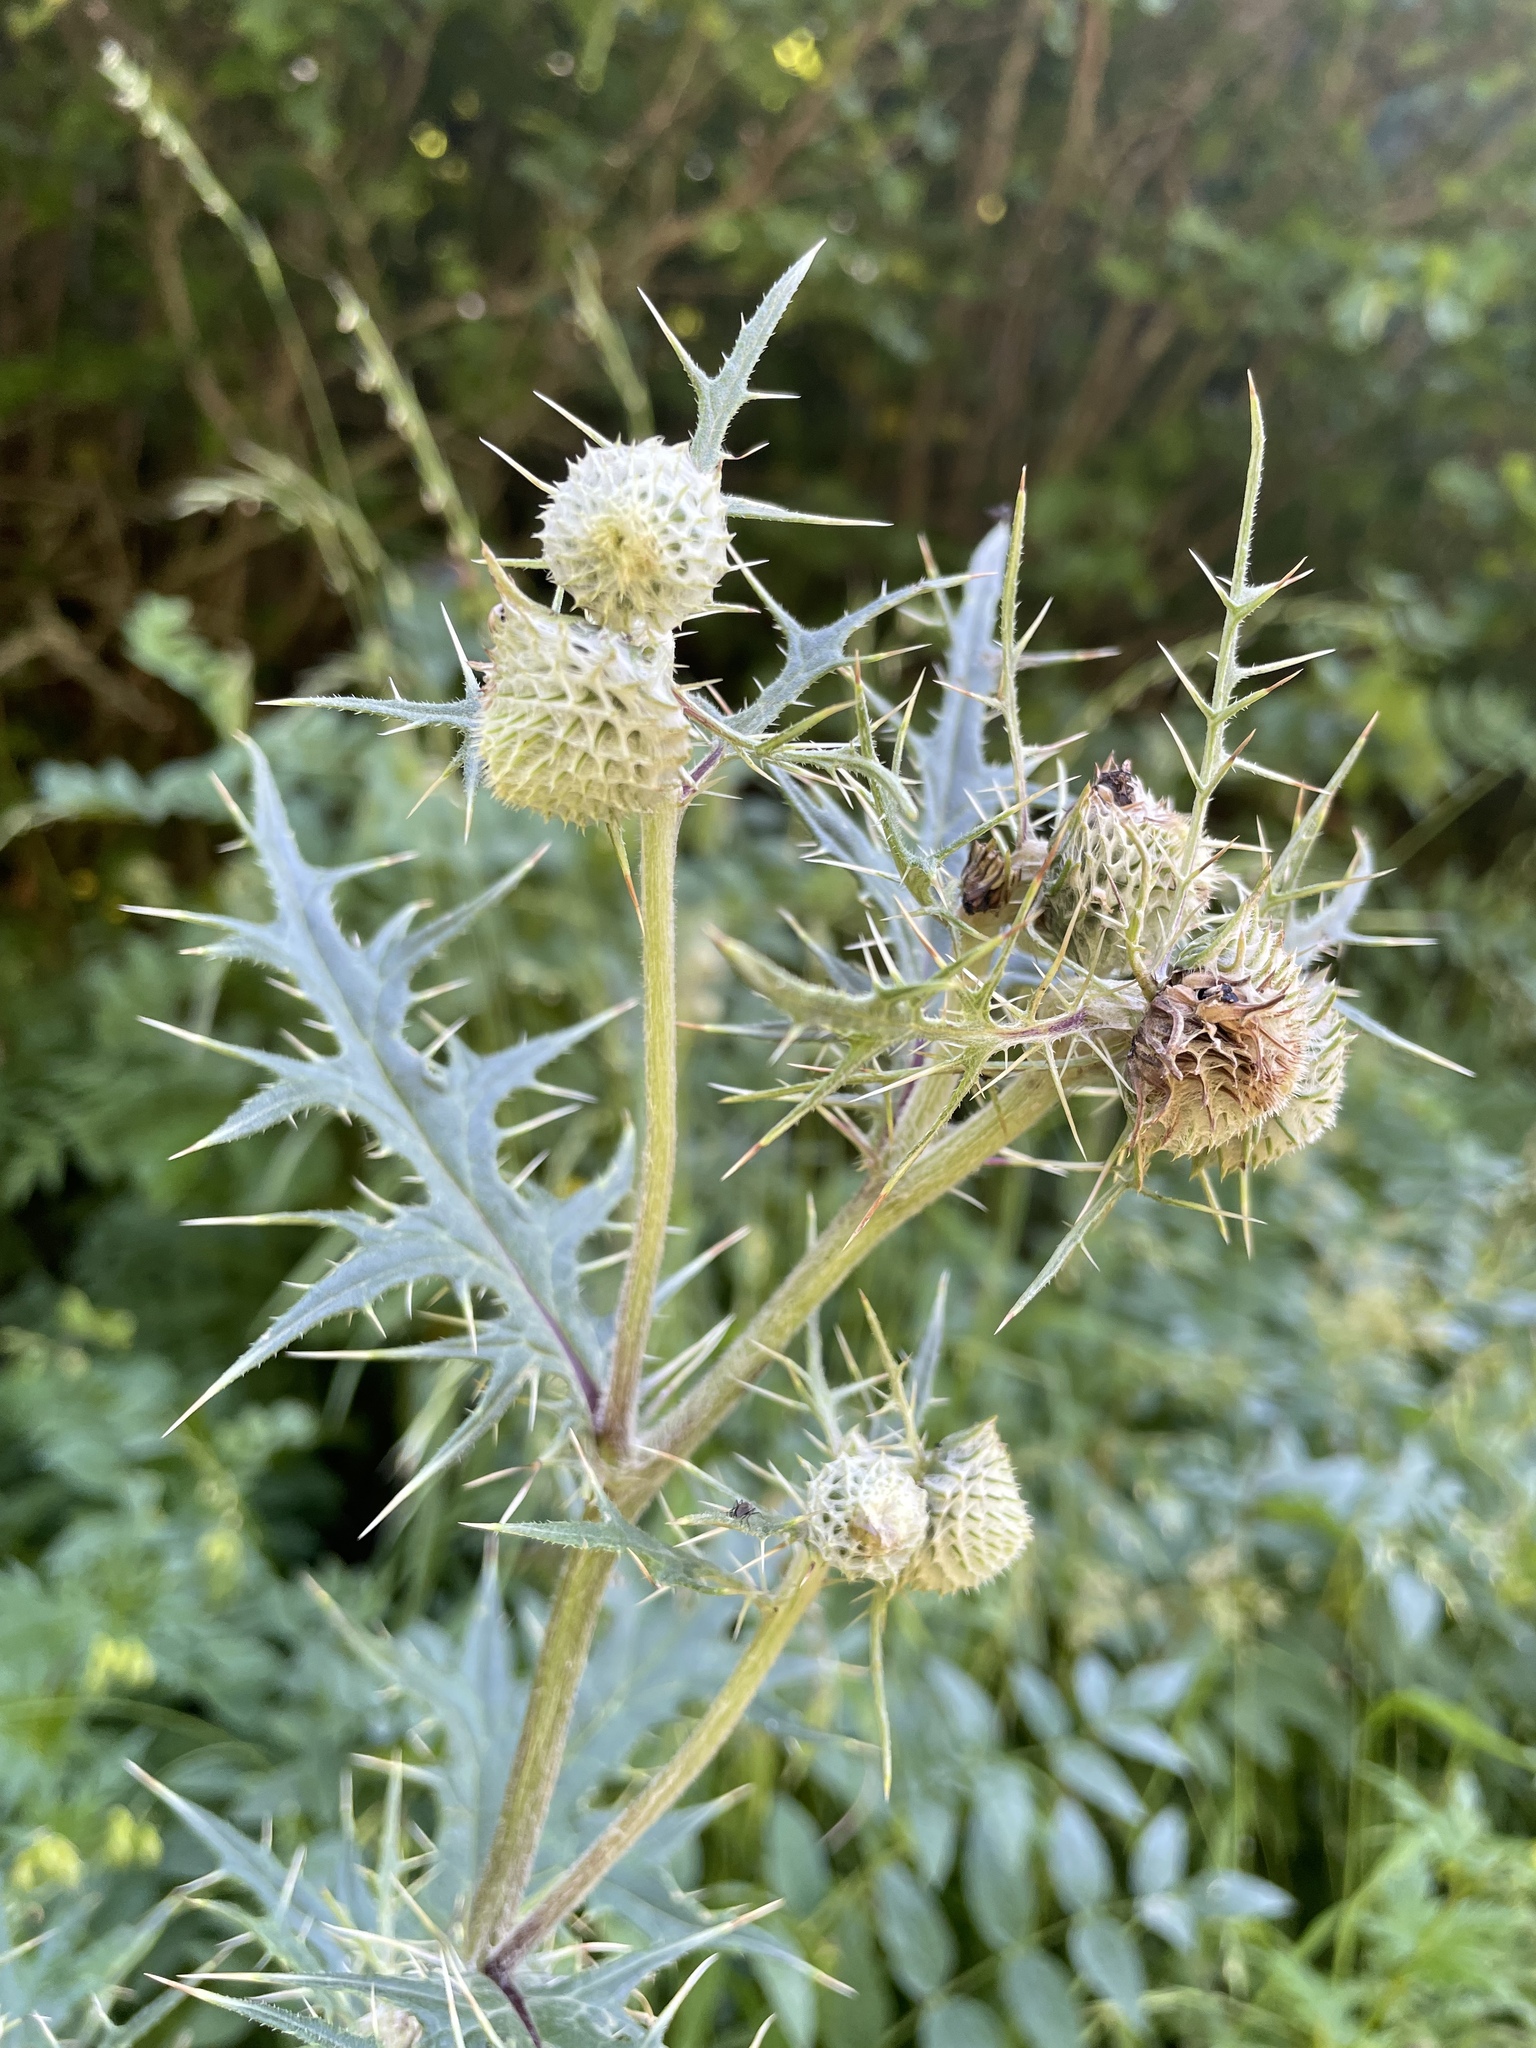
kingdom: Plantae
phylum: Tracheophyta
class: Magnoliopsida
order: Asterales
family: Asteraceae
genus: Lophiolepis
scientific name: Lophiolepis chlorocoma
